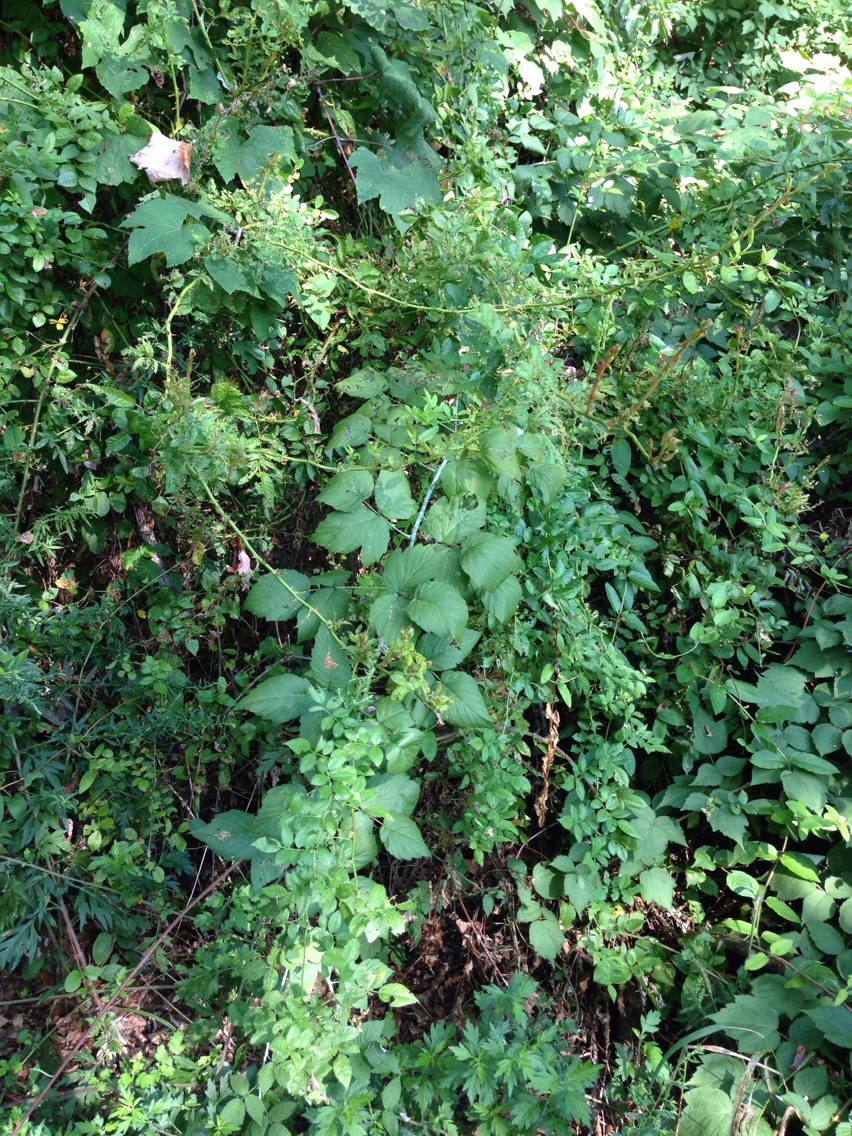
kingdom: Plantae
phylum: Tracheophyta
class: Magnoliopsida
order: Rosales
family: Rosaceae
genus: Rosa
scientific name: Rosa multiflora
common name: Multiflora rose
